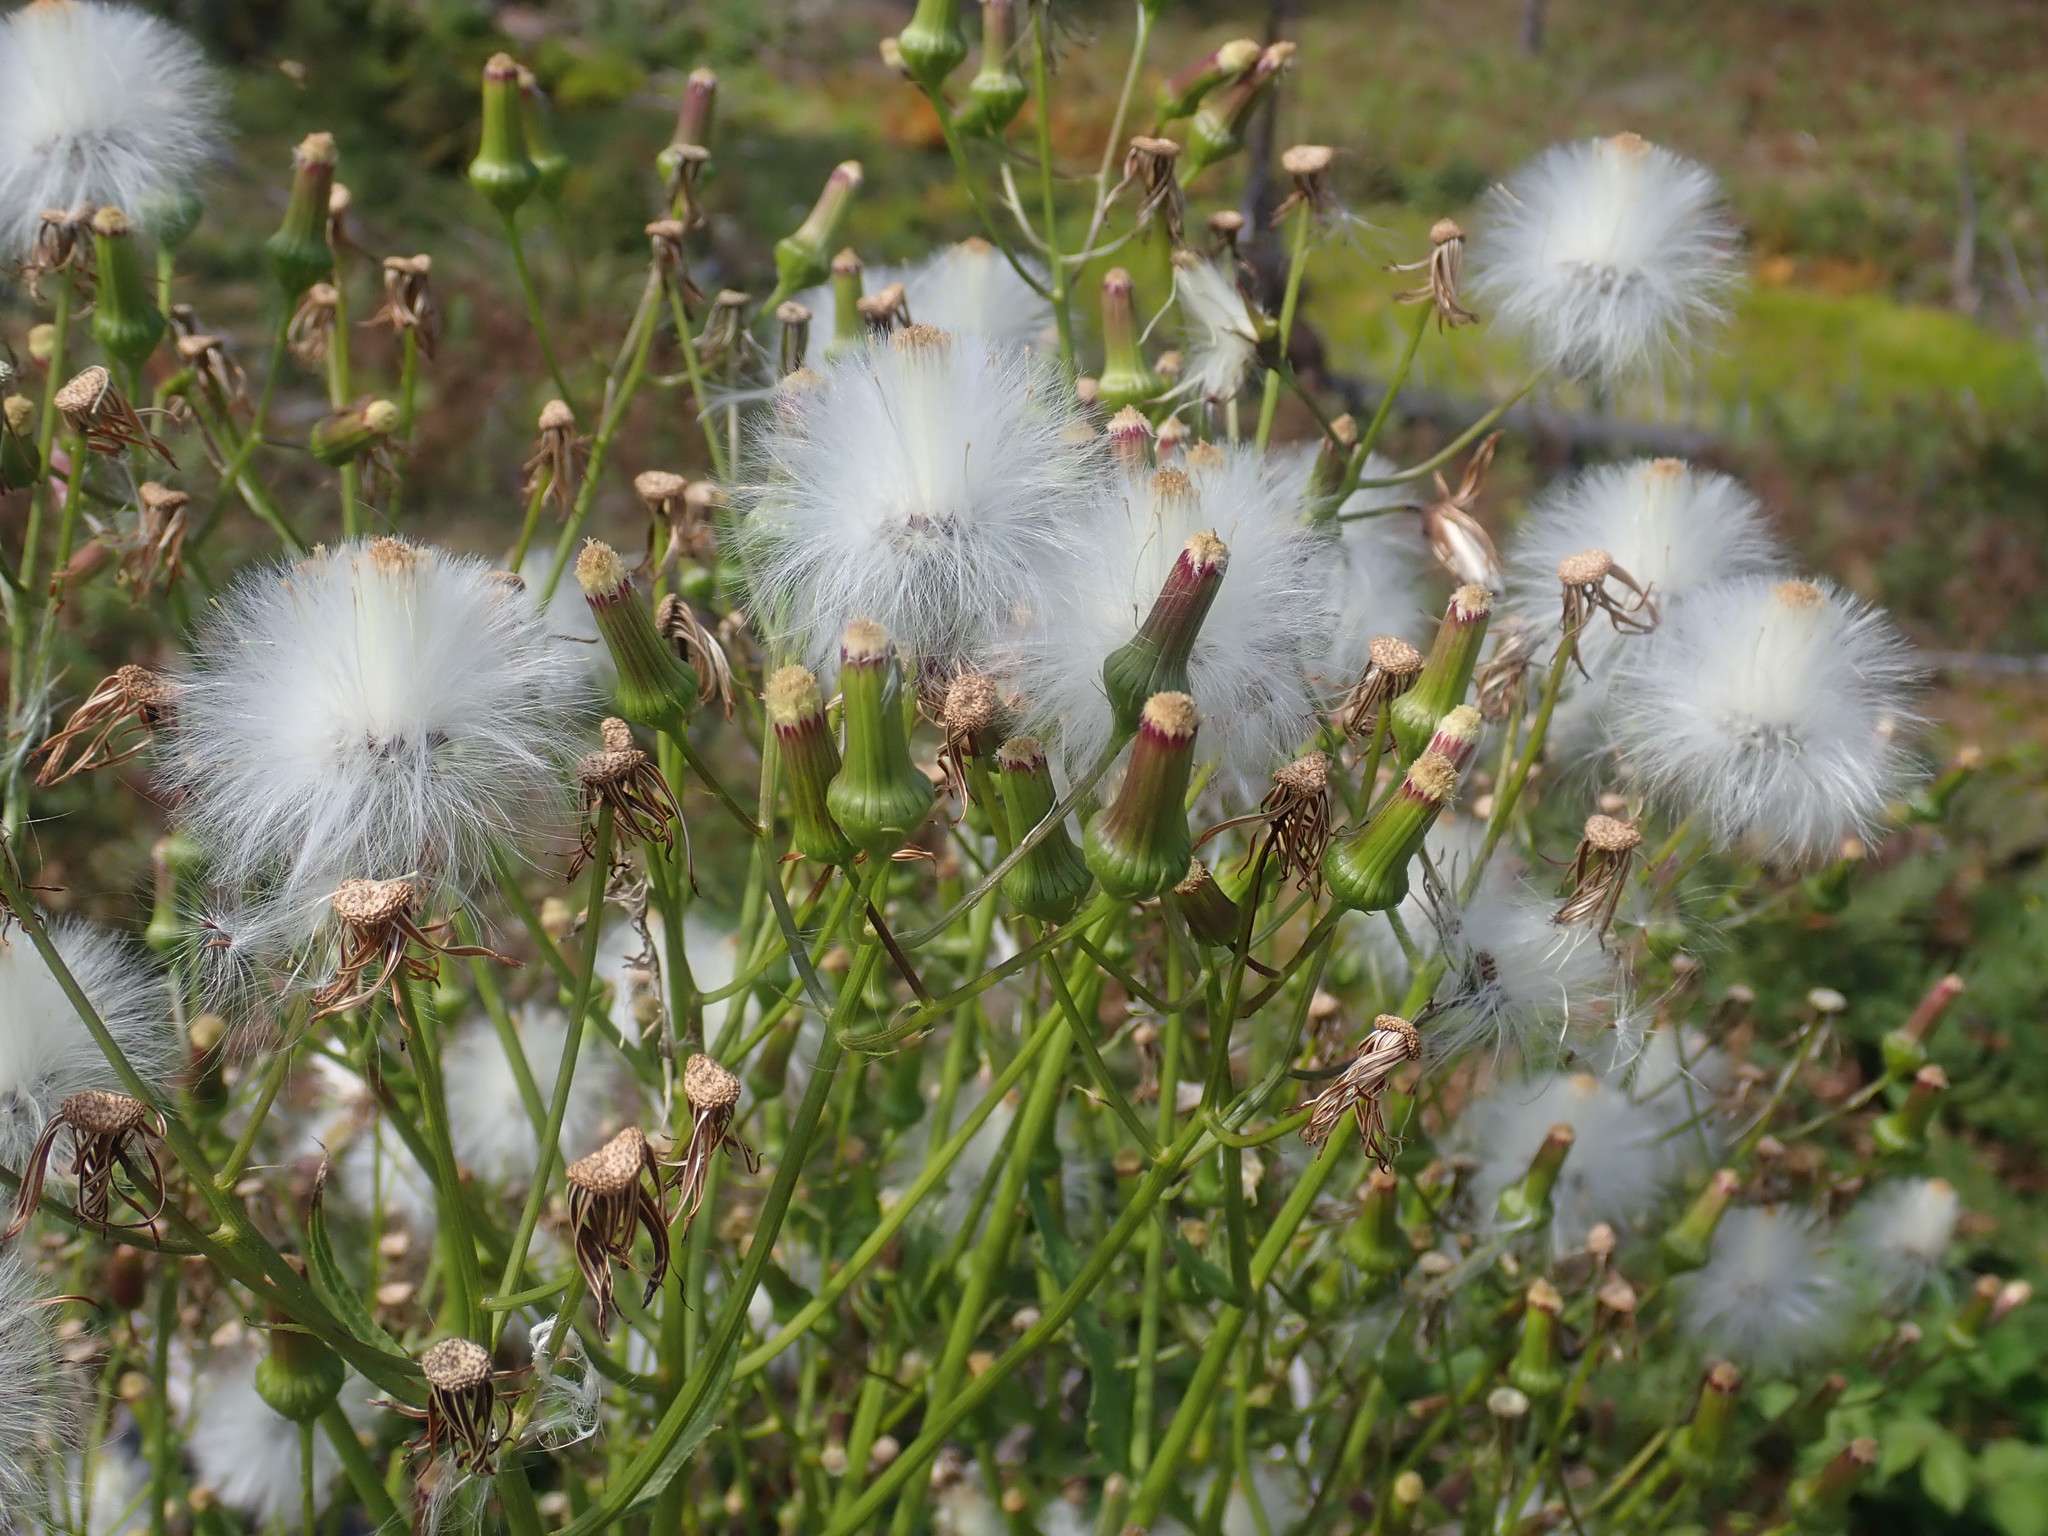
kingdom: Plantae
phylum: Tracheophyta
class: Magnoliopsida
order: Asterales
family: Asteraceae
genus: Erechtites
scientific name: Erechtites hieraciifolius
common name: American burnweed
